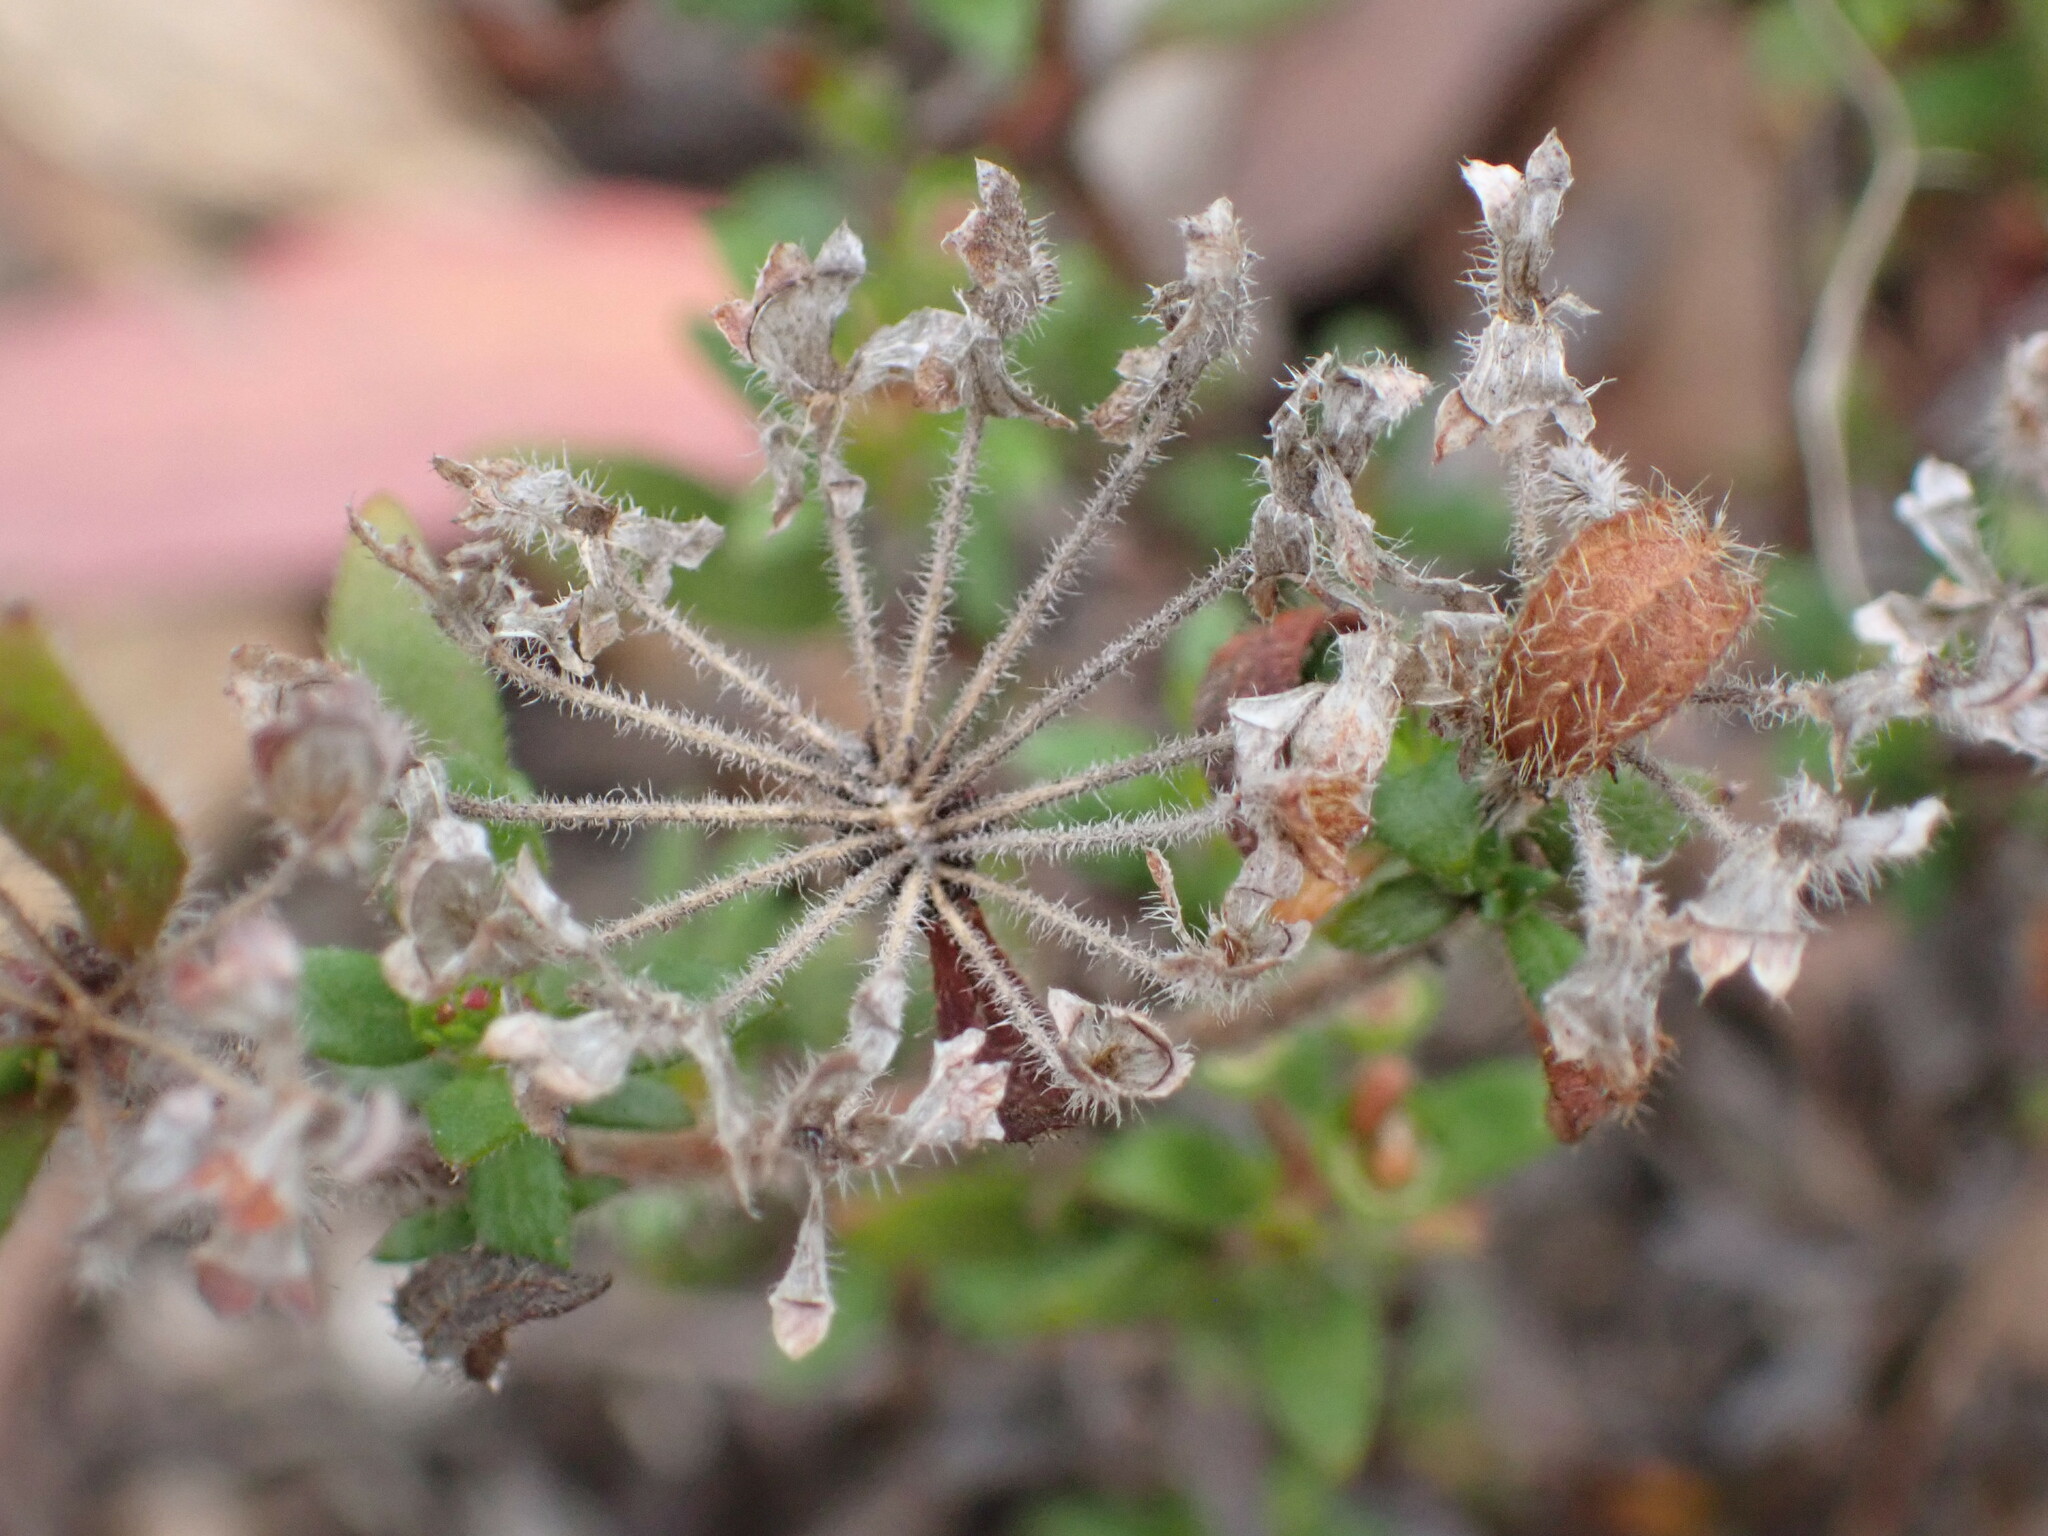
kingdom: Plantae
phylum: Tracheophyta
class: Magnoliopsida
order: Gentianales
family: Rubiaceae
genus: Pomax
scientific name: Pomax umbellata
